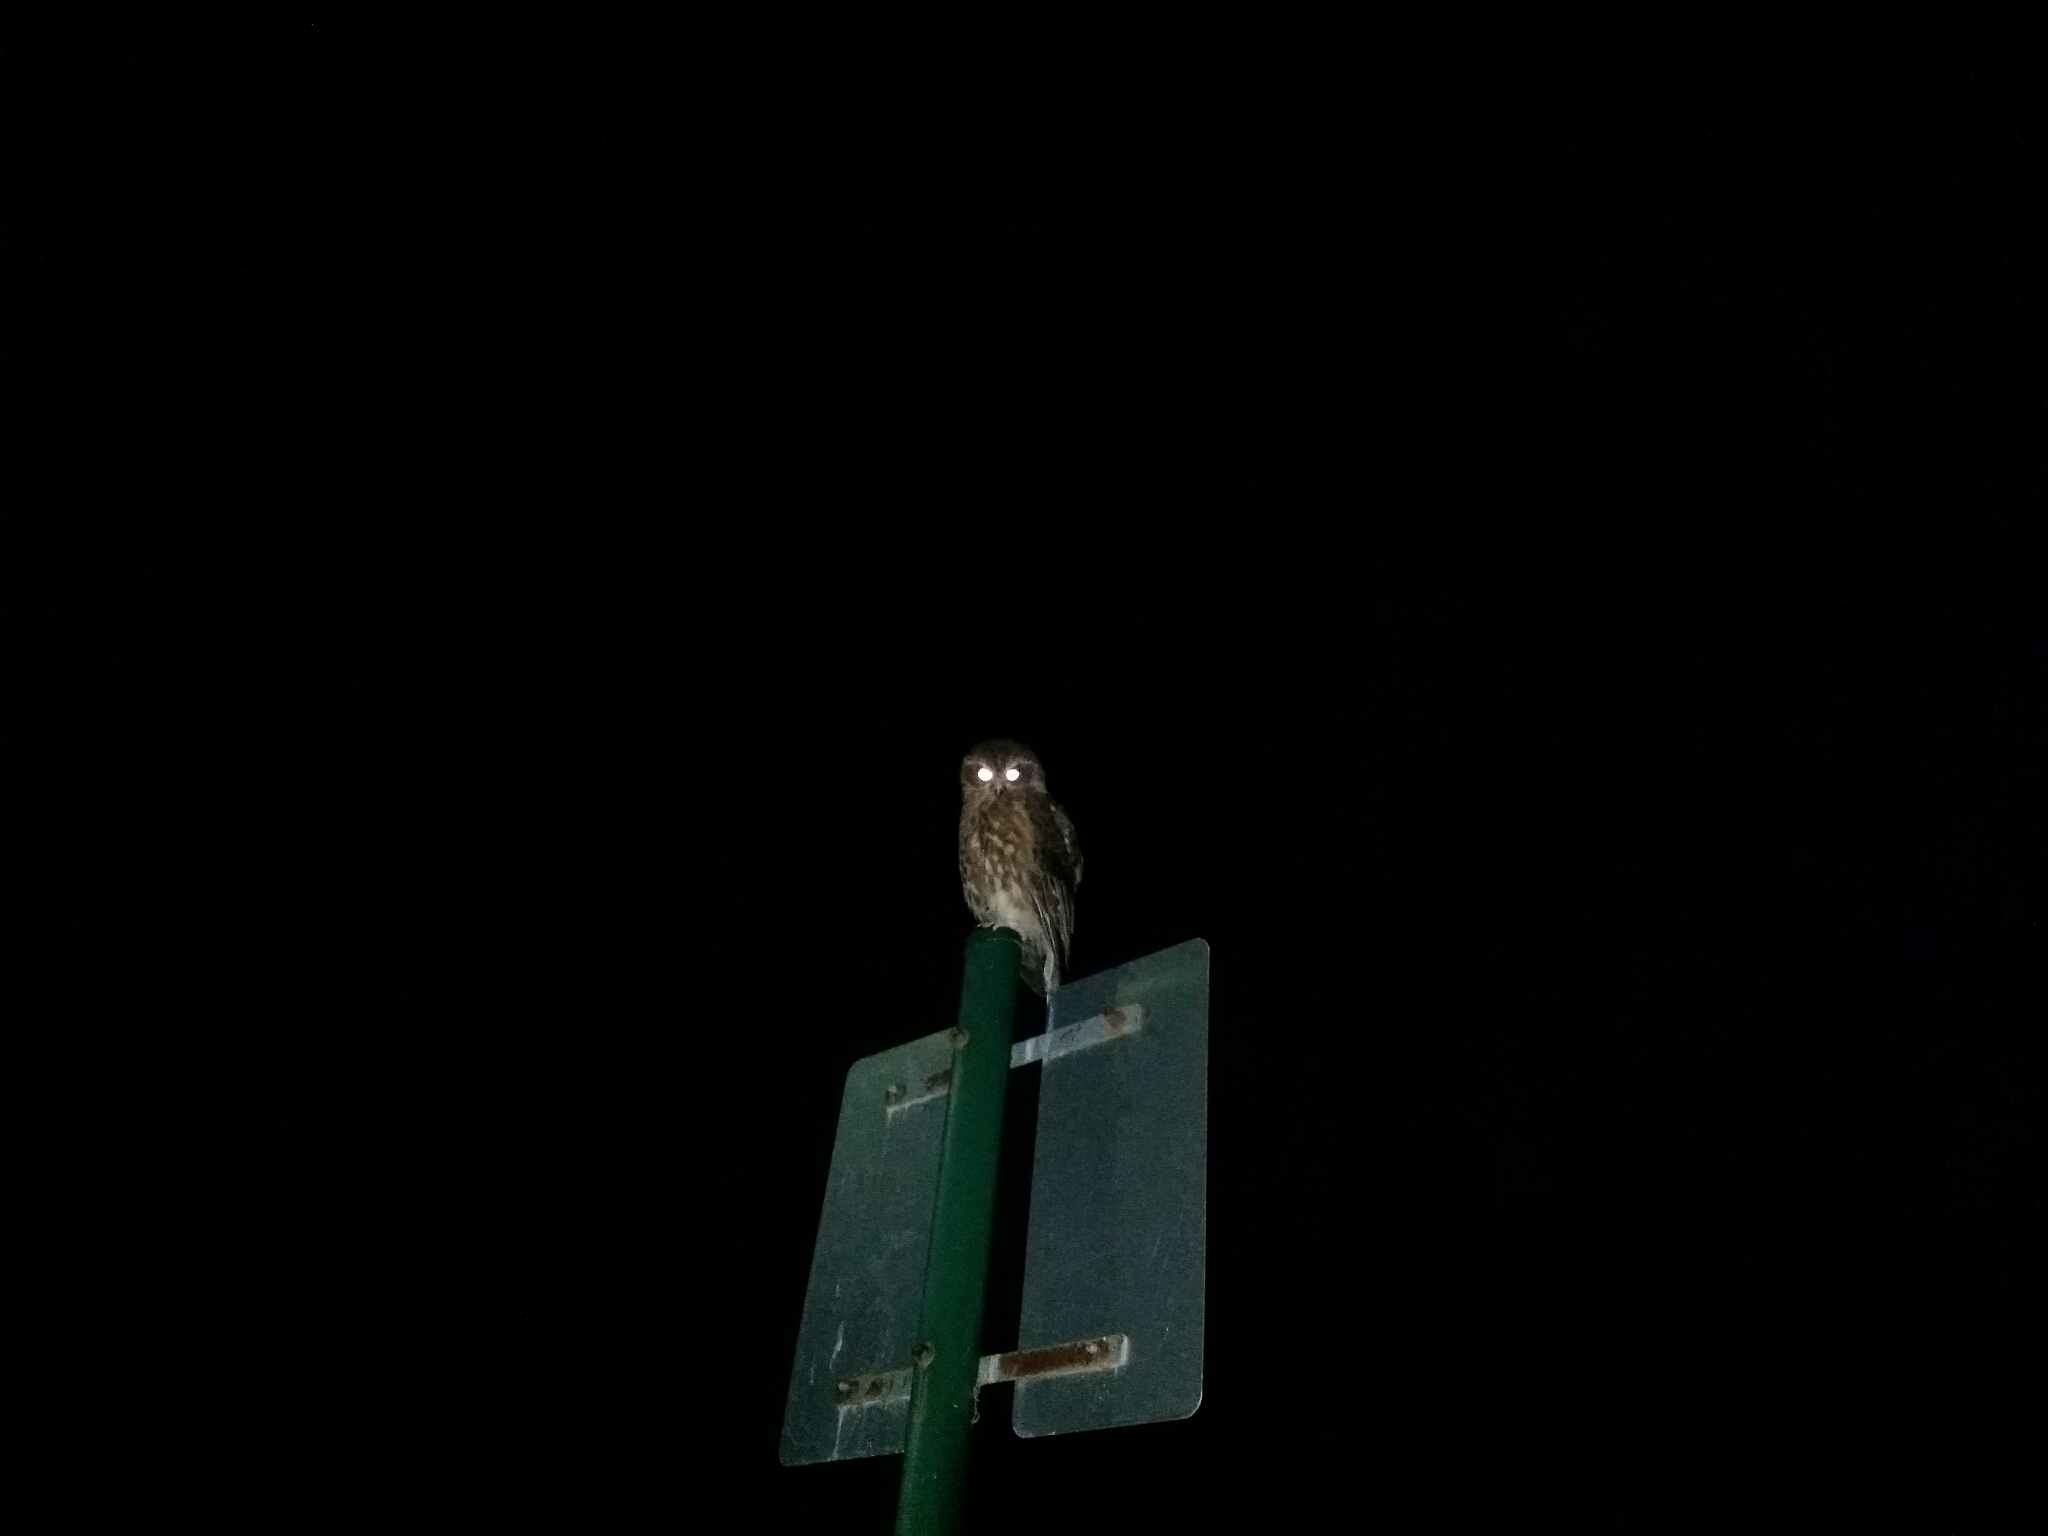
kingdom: Animalia
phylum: Chordata
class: Aves
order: Strigiformes
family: Strigidae
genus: Ninox
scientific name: Ninox boobook
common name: Southern boobook
